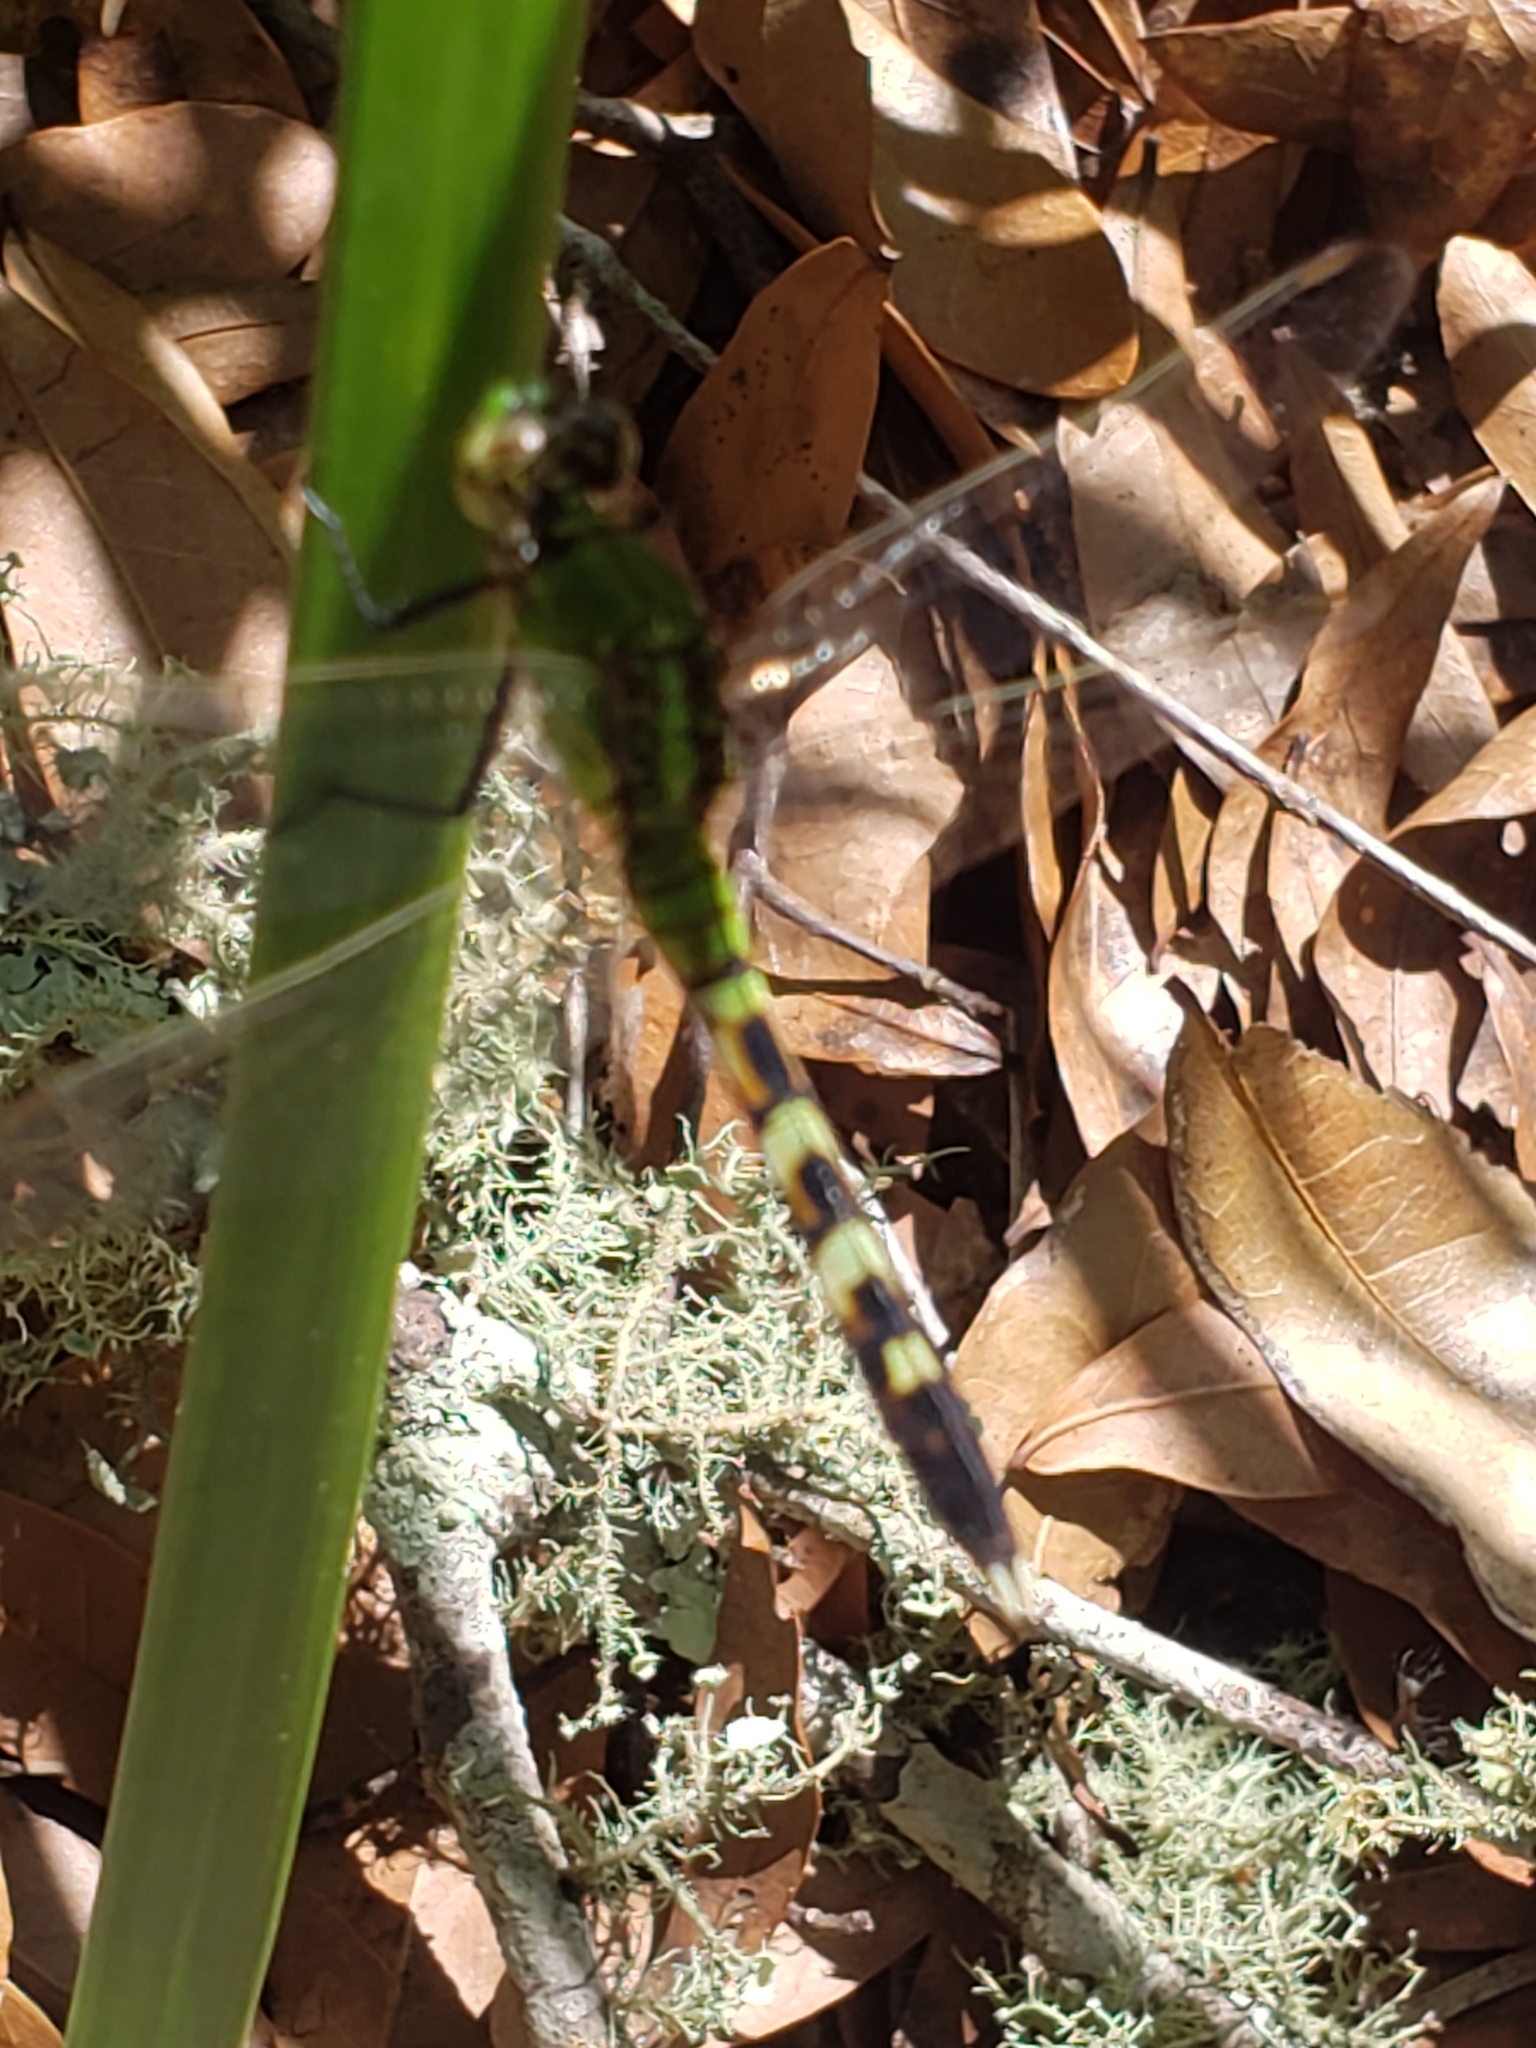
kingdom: Animalia
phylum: Arthropoda
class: Insecta
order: Odonata
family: Libellulidae
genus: Erythemis
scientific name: Erythemis simplicicollis
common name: Eastern pondhawk
